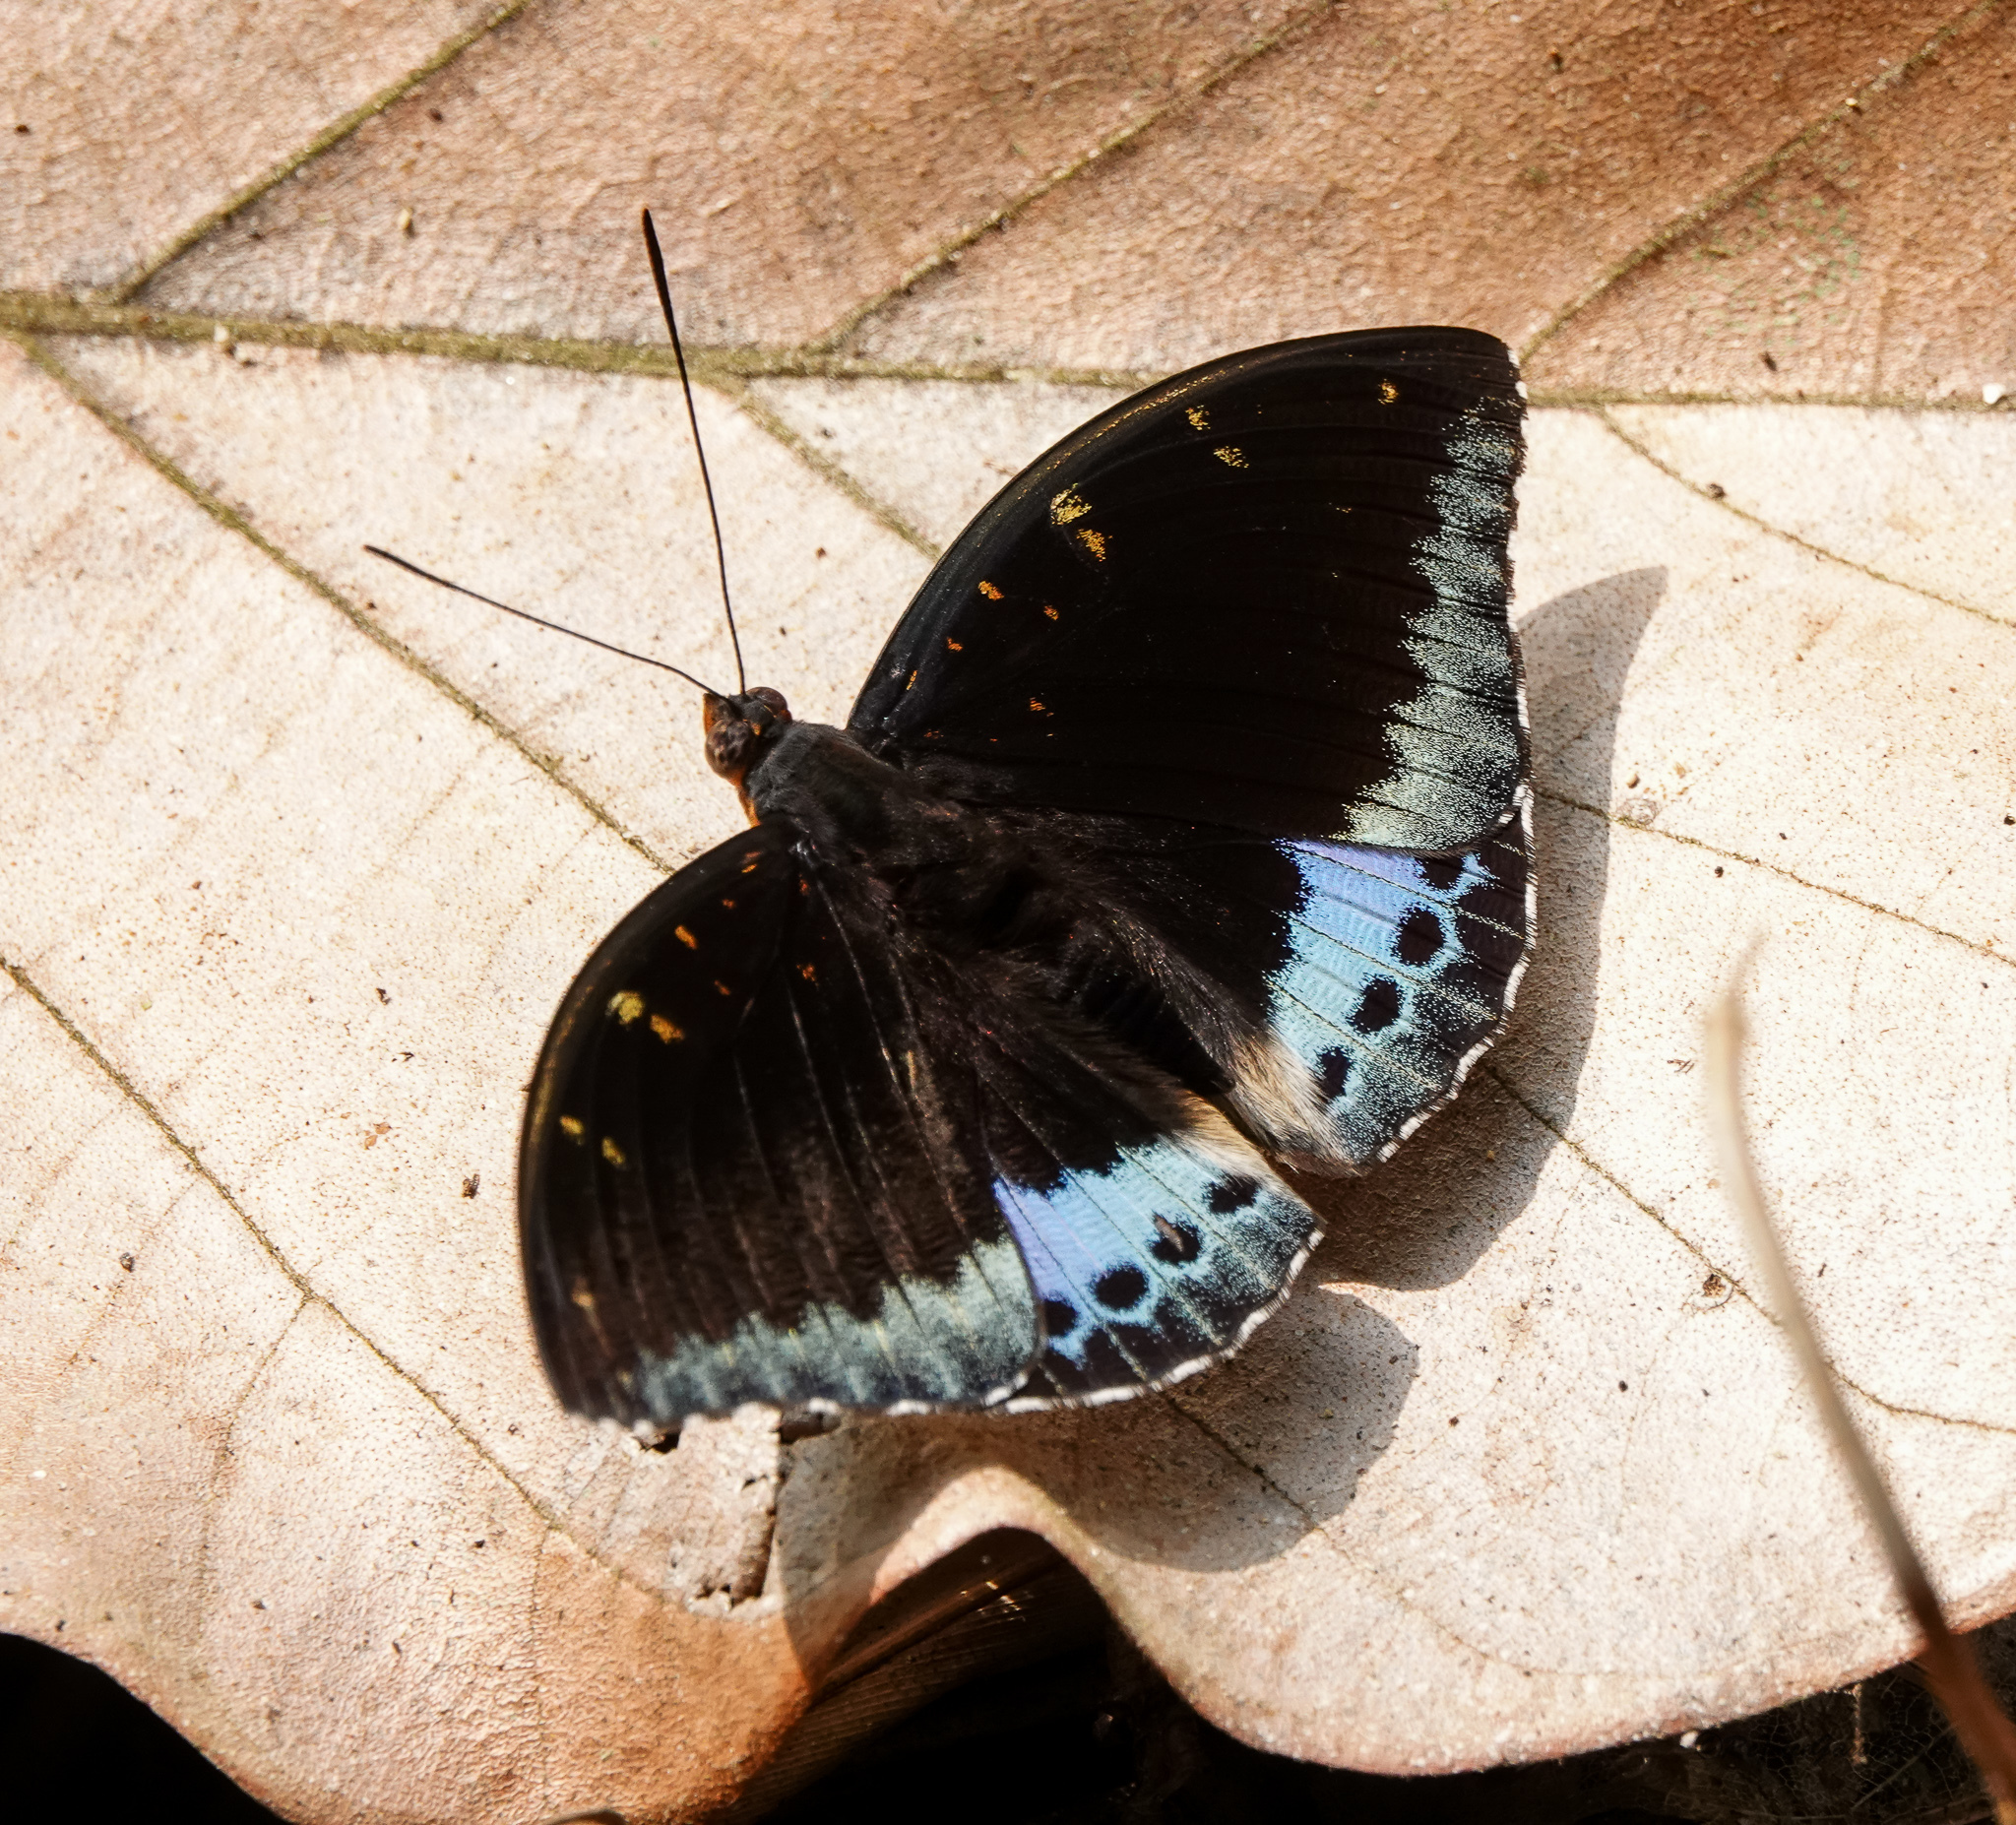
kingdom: Animalia
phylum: Arthropoda
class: Insecta
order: Lepidoptera
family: Nymphalidae
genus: Lexias
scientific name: Lexias dirtea
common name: Black-tipped archduke
